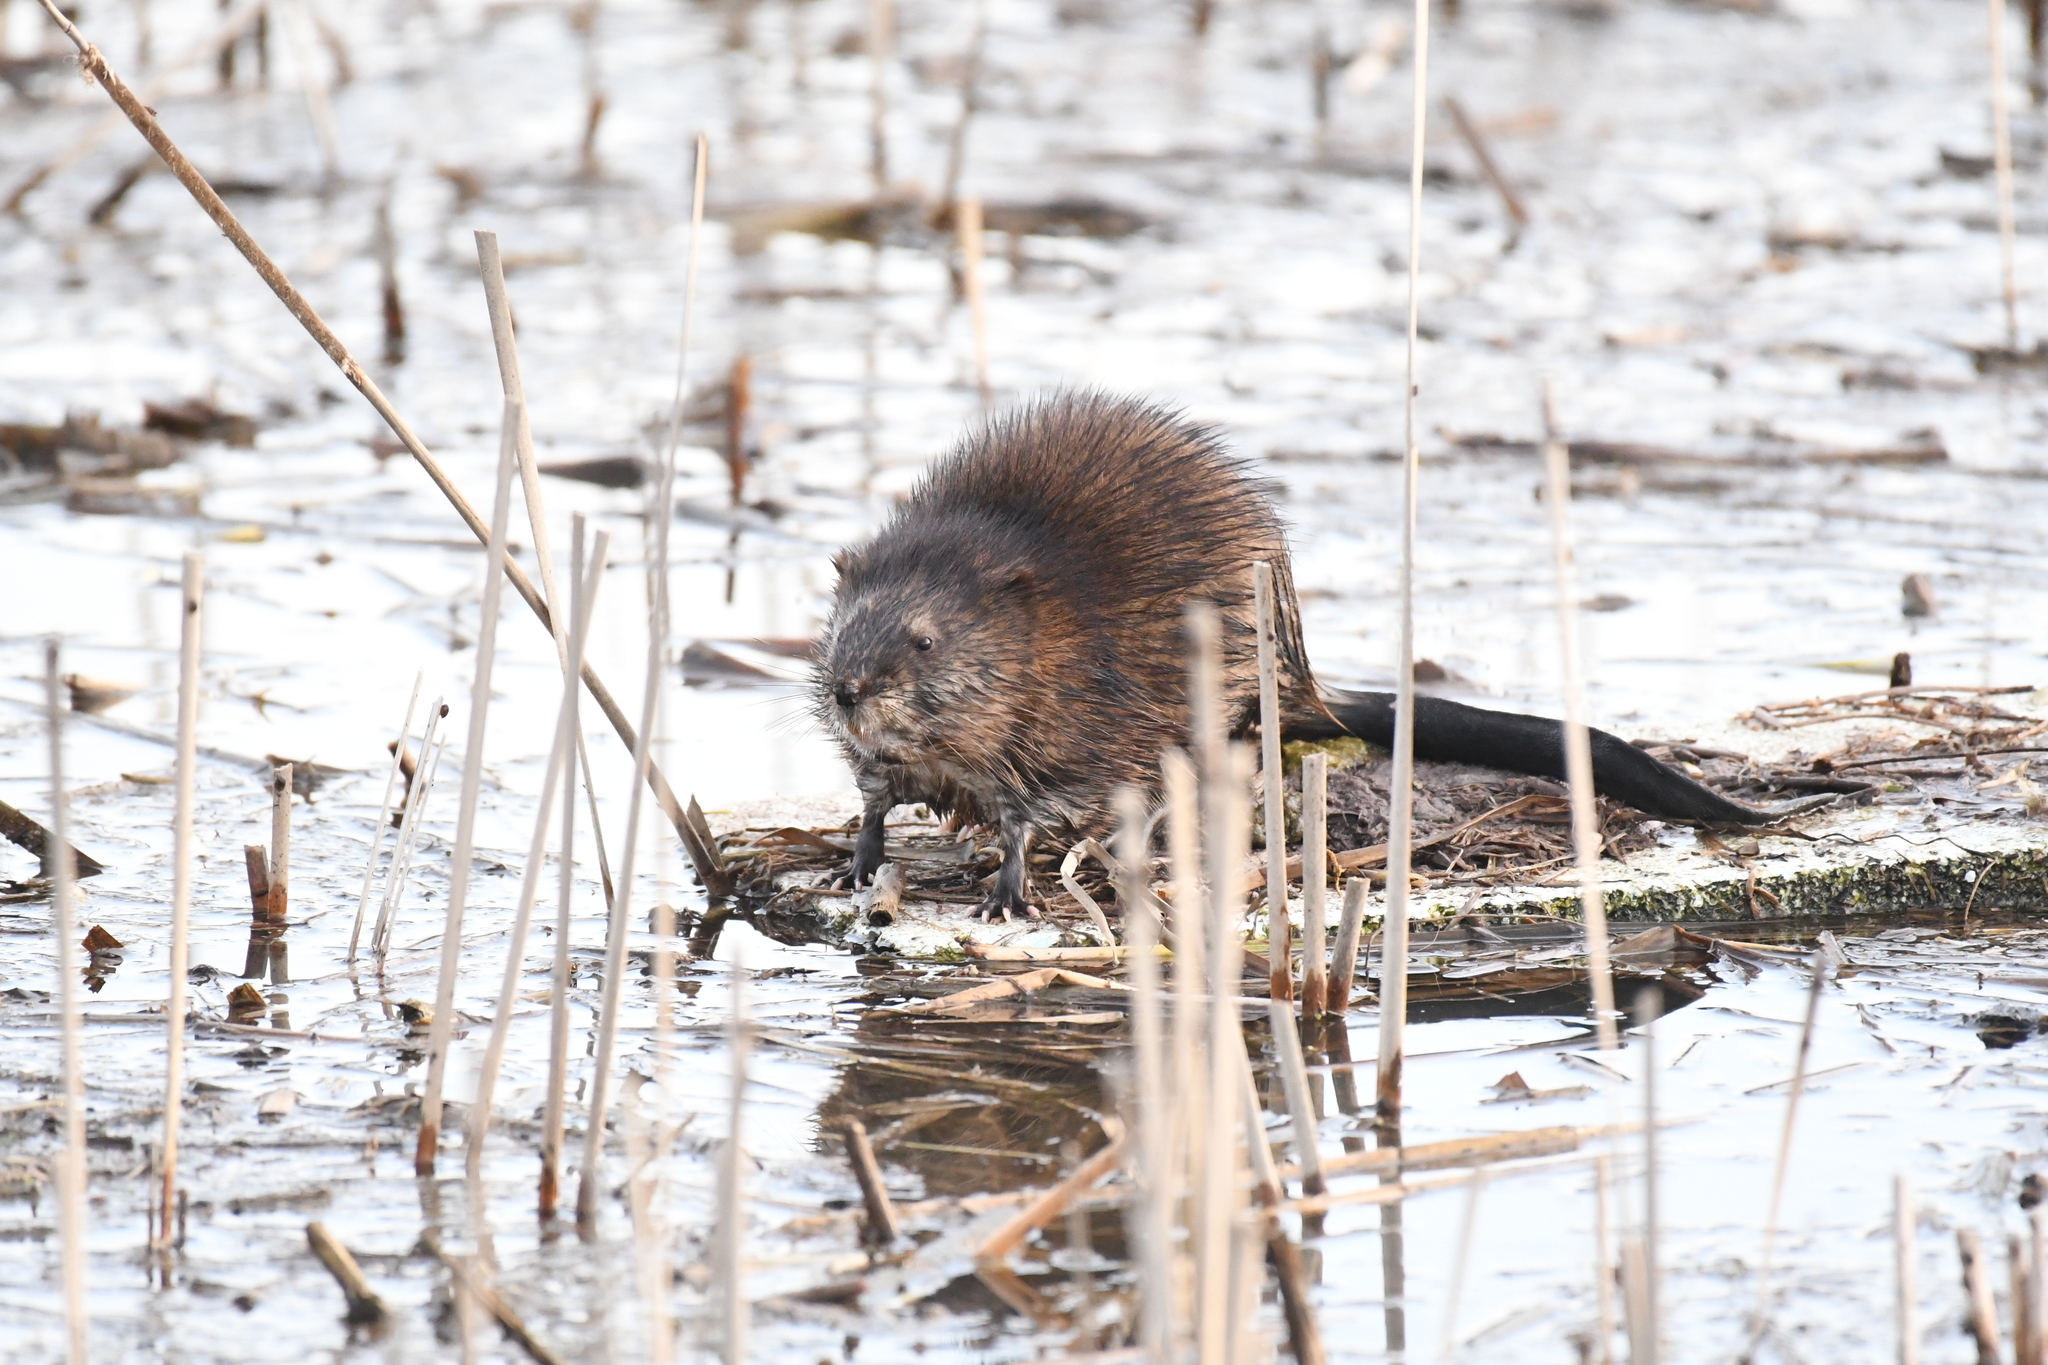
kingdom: Animalia
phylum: Chordata
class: Mammalia
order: Rodentia
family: Cricetidae
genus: Ondatra
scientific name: Ondatra zibethicus
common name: Muskrat
